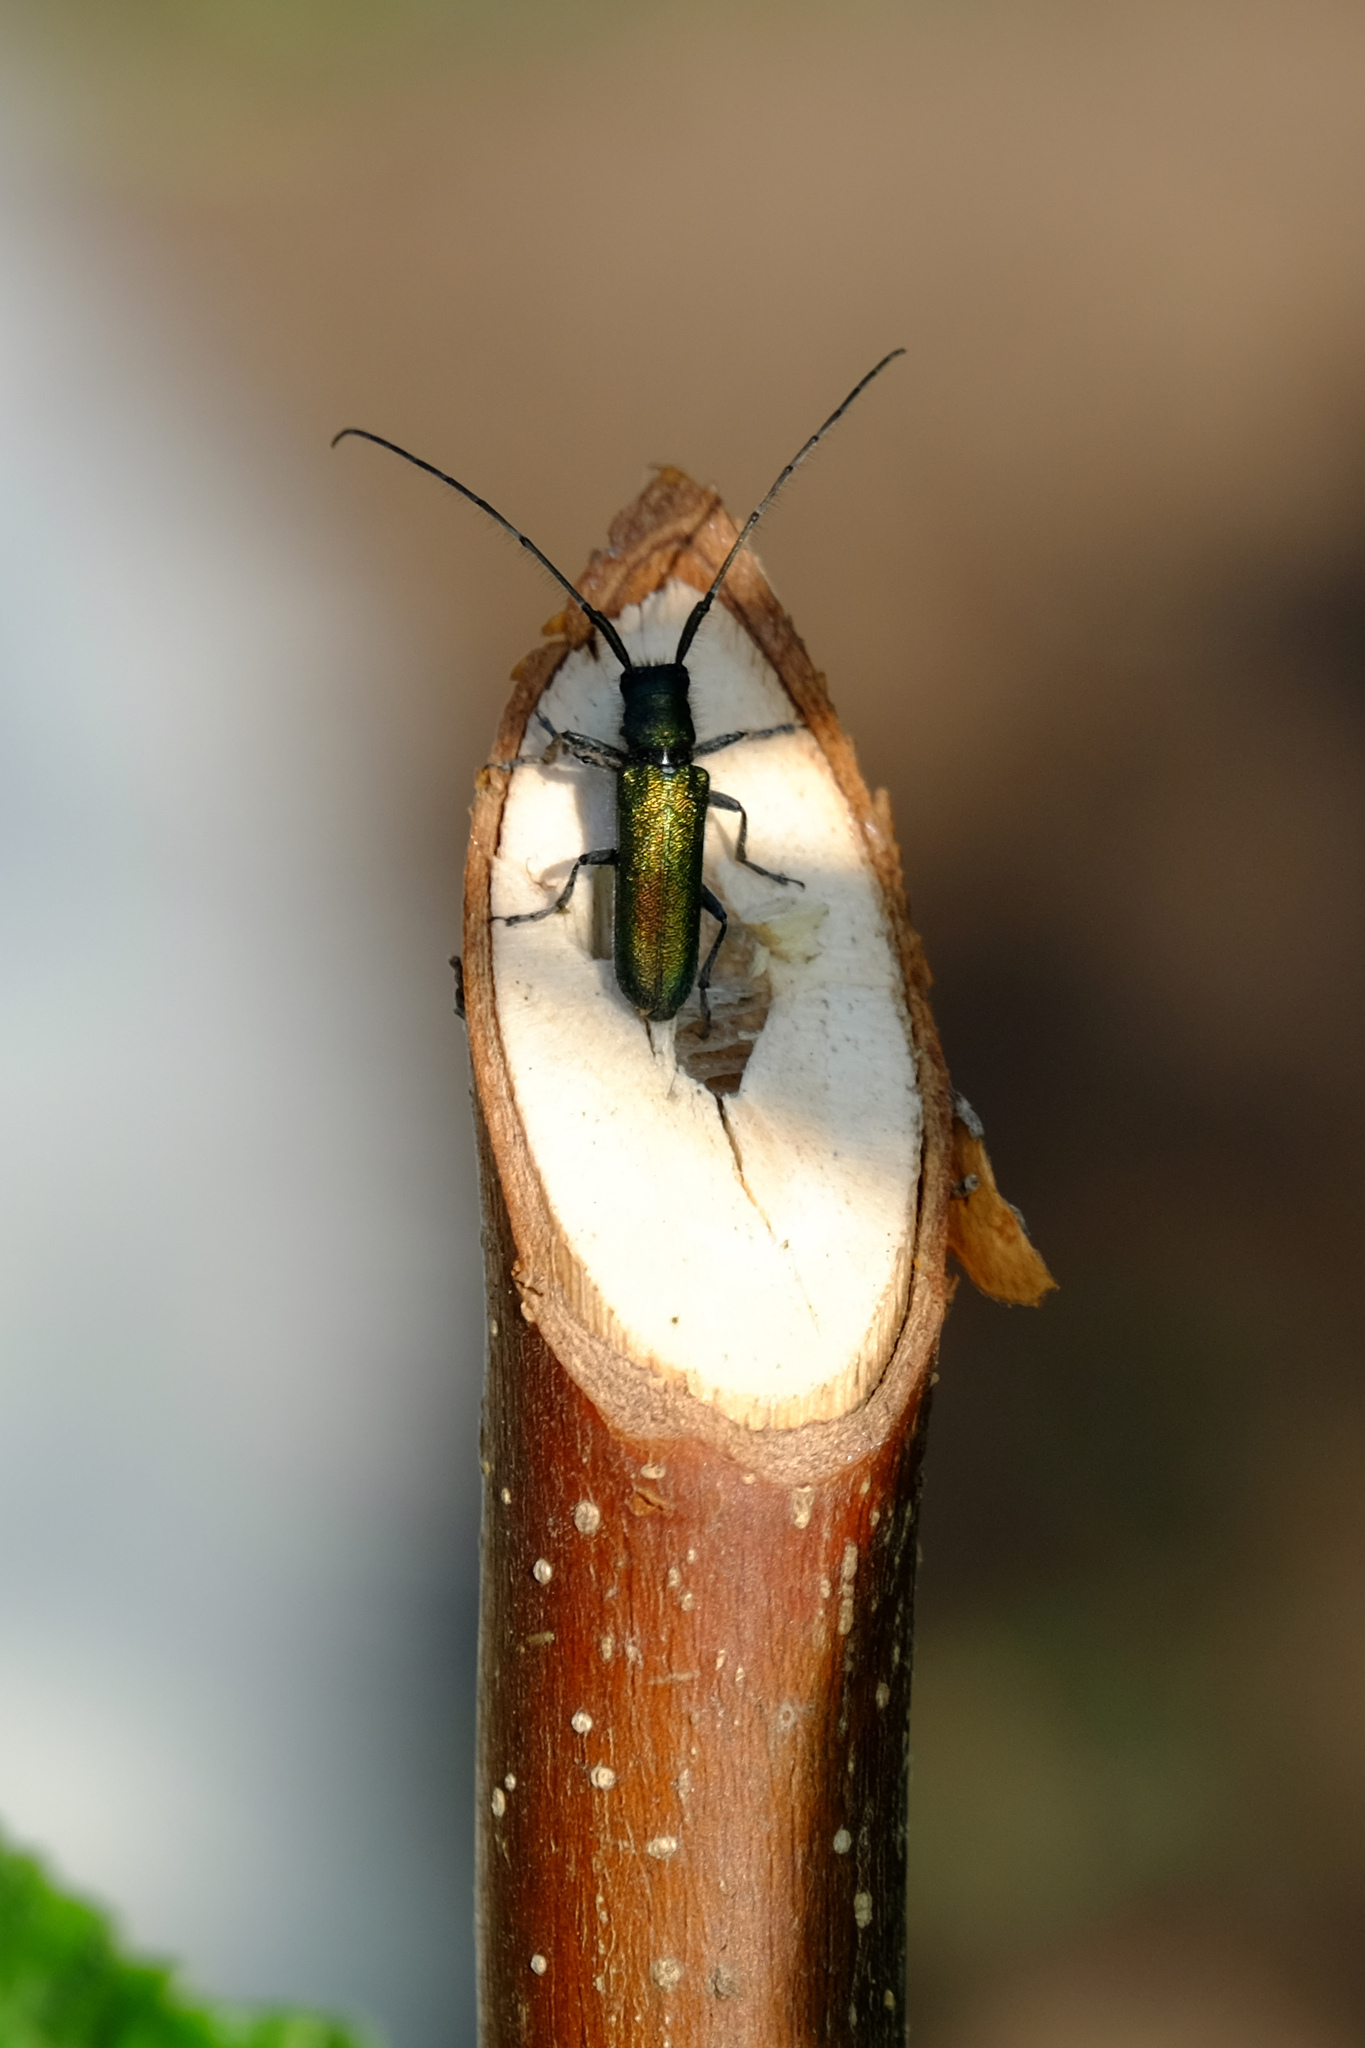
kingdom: Animalia
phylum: Arthropoda
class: Insecta
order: Coleoptera
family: Cerambycidae
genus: Agapanthia
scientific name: Agapanthia intermedia
